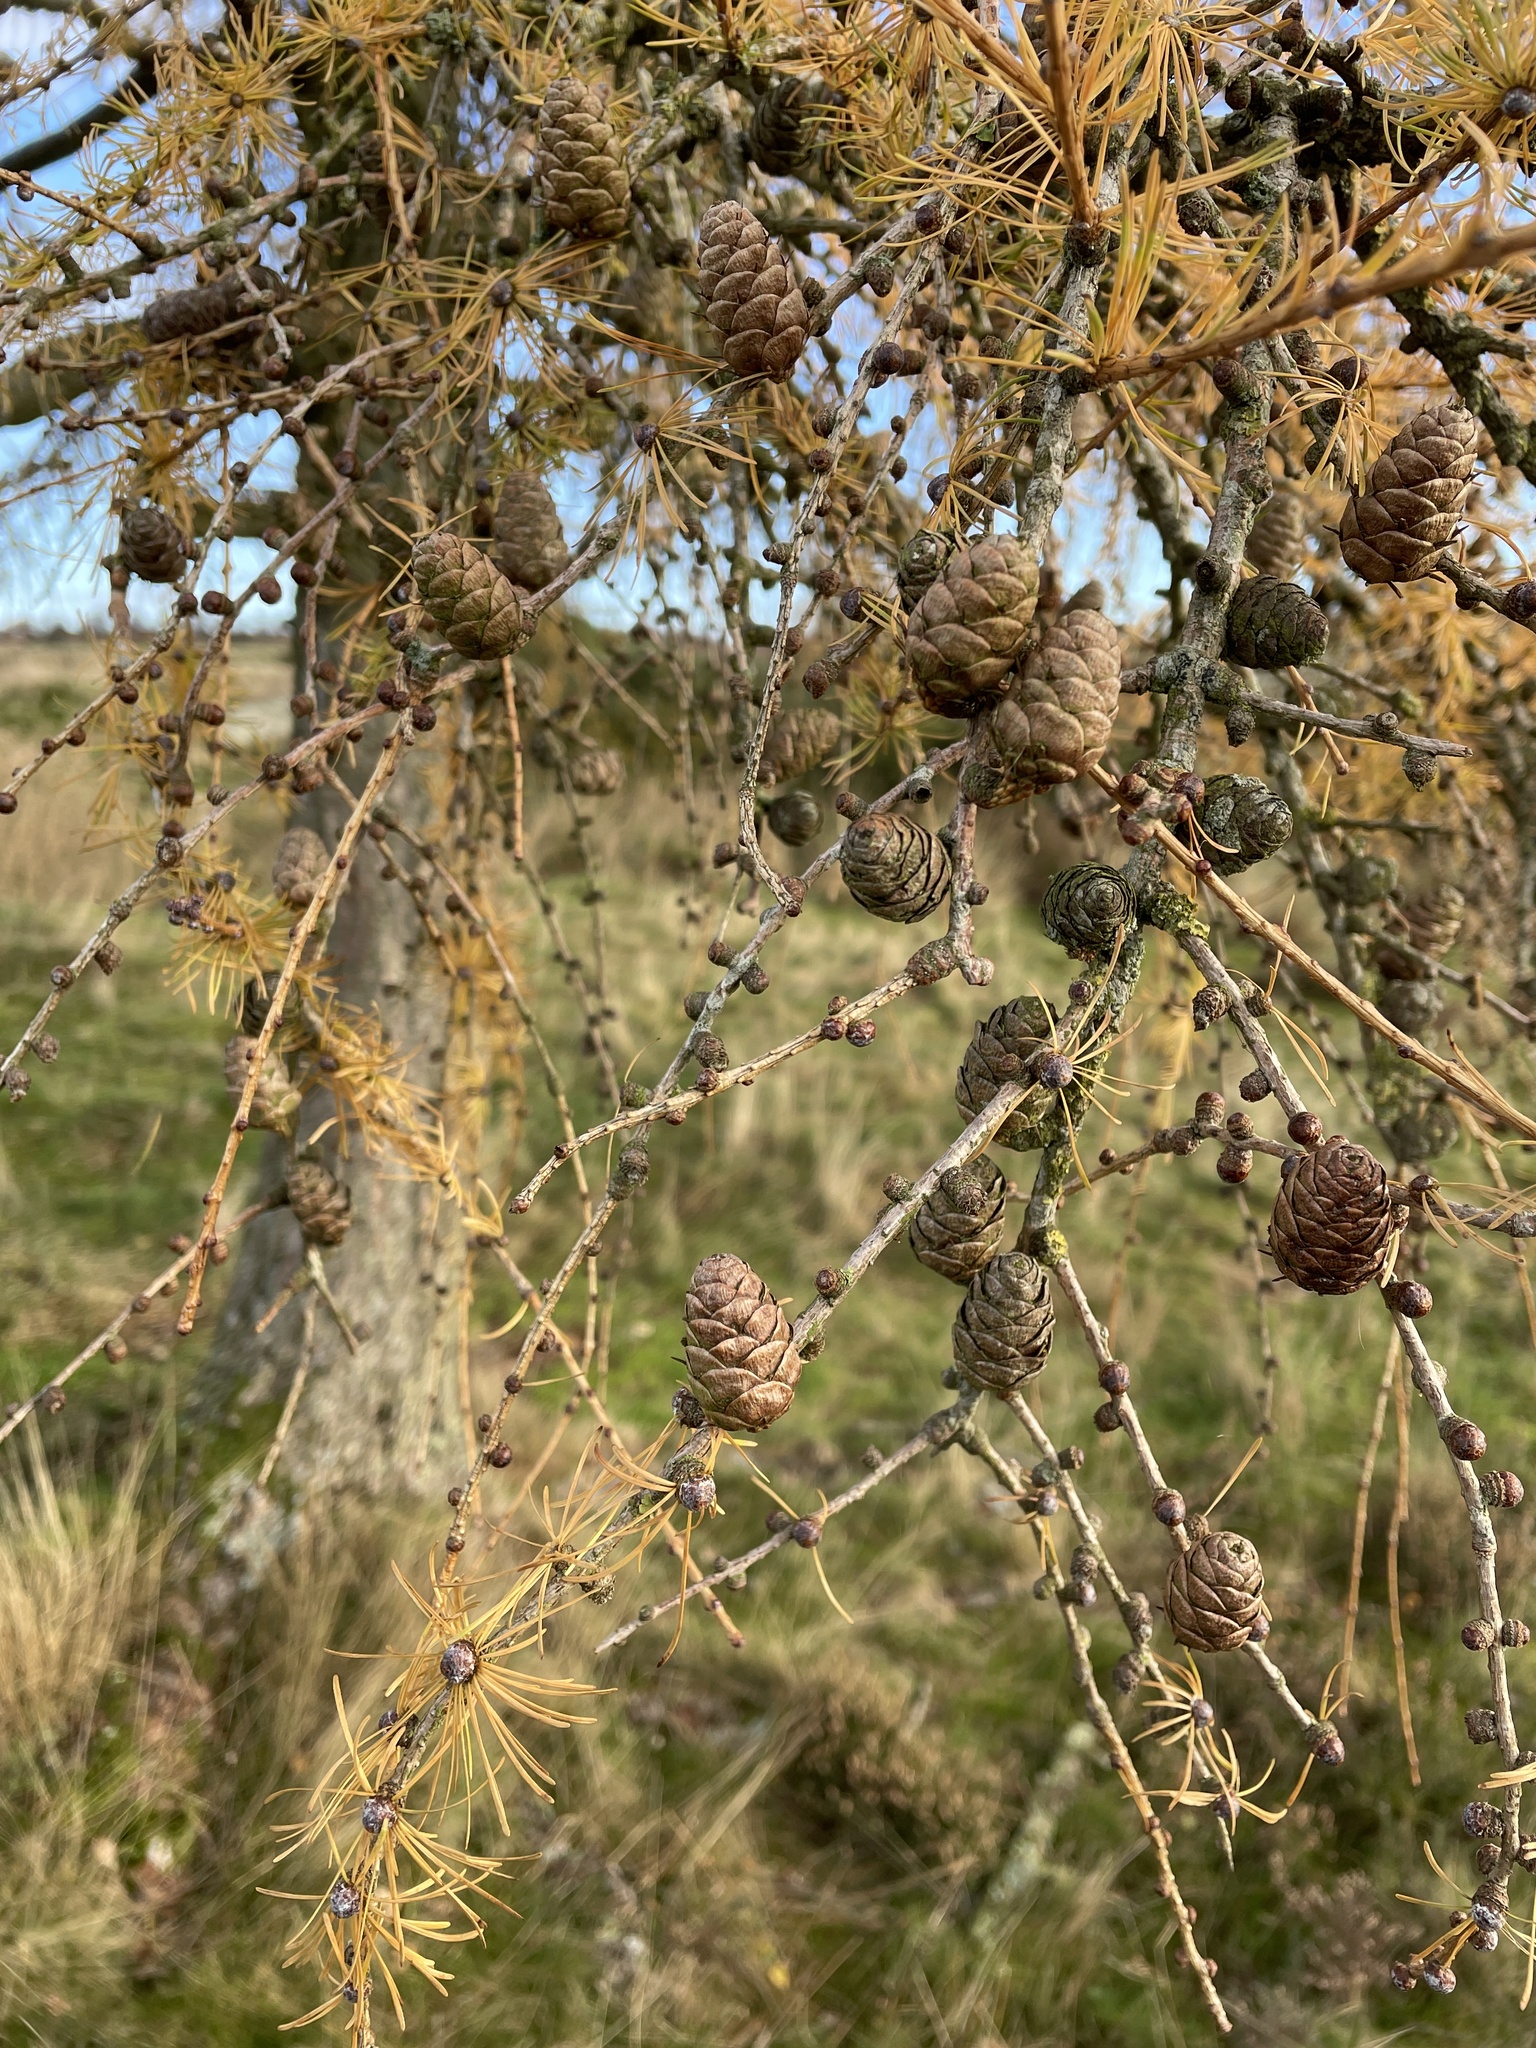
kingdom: Plantae
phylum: Tracheophyta
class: Pinopsida
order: Pinales
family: Pinaceae
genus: Larix
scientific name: Larix decidua
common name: European larch
